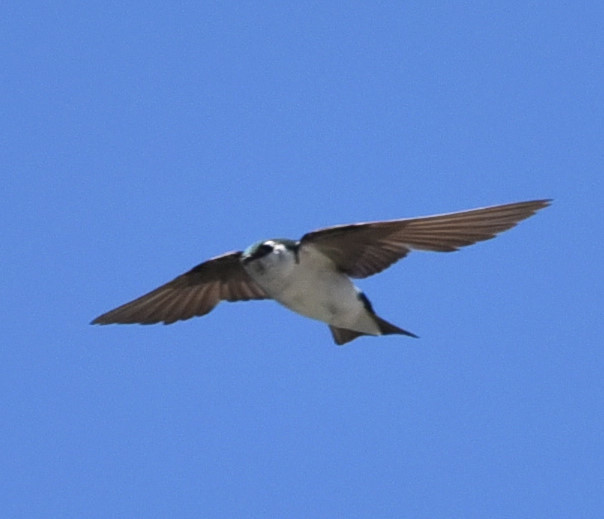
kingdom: Animalia
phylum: Chordata
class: Aves
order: Passeriformes
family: Hirundinidae
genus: Tachycineta
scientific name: Tachycineta thalassina
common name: Violet-green swallow
